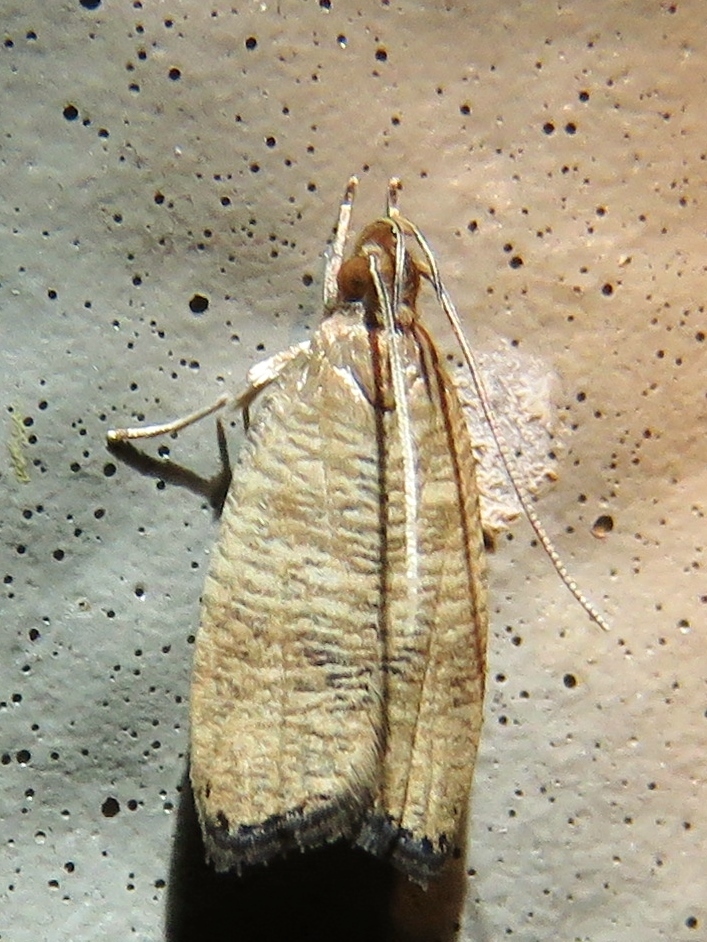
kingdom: Animalia
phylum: Arthropoda
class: Insecta
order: Lepidoptera
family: Depressariidae
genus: Psilocorsis
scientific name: Psilocorsis cryptolechiella
